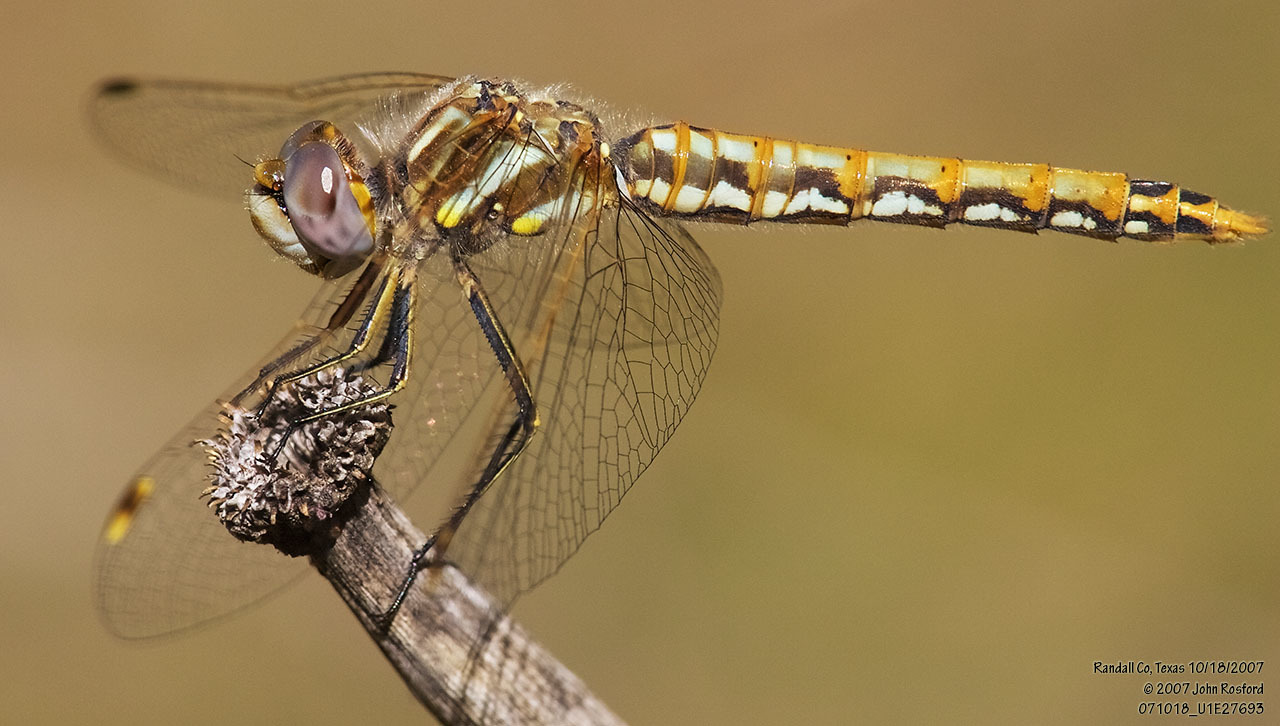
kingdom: Animalia
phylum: Arthropoda
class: Insecta
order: Odonata
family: Libellulidae
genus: Sympetrum
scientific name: Sympetrum corruptum
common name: Variegated meadowhawk
